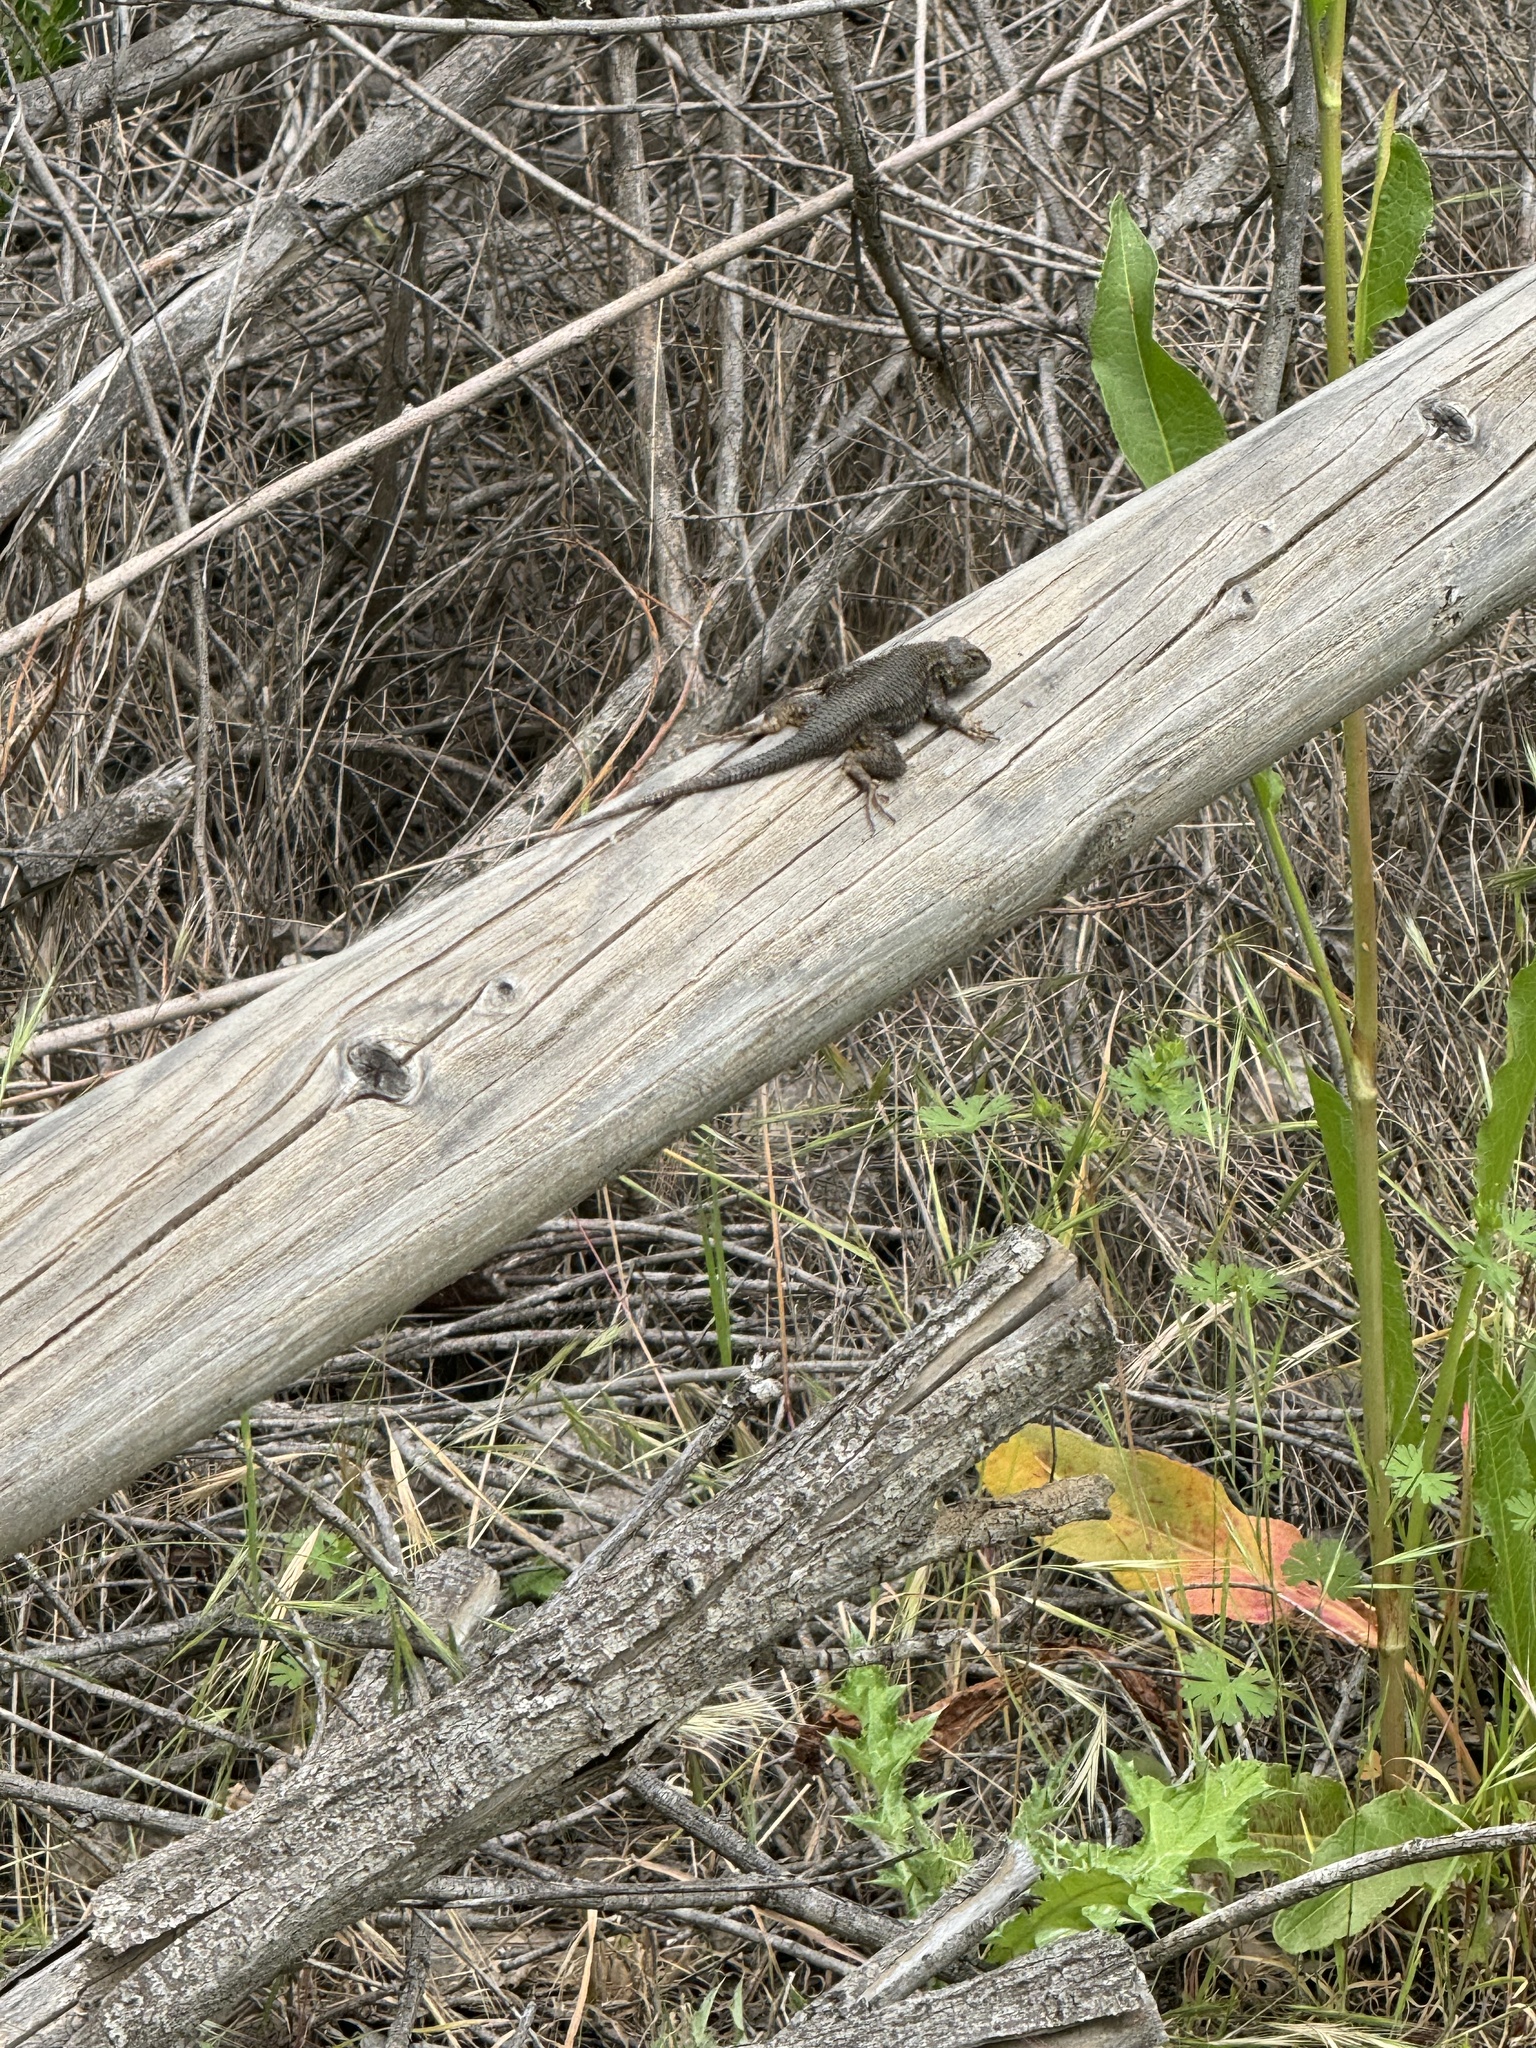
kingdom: Animalia
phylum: Chordata
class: Squamata
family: Phrynosomatidae
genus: Sceloporus
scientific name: Sceloporus occidentalis
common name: Western fence lizard
